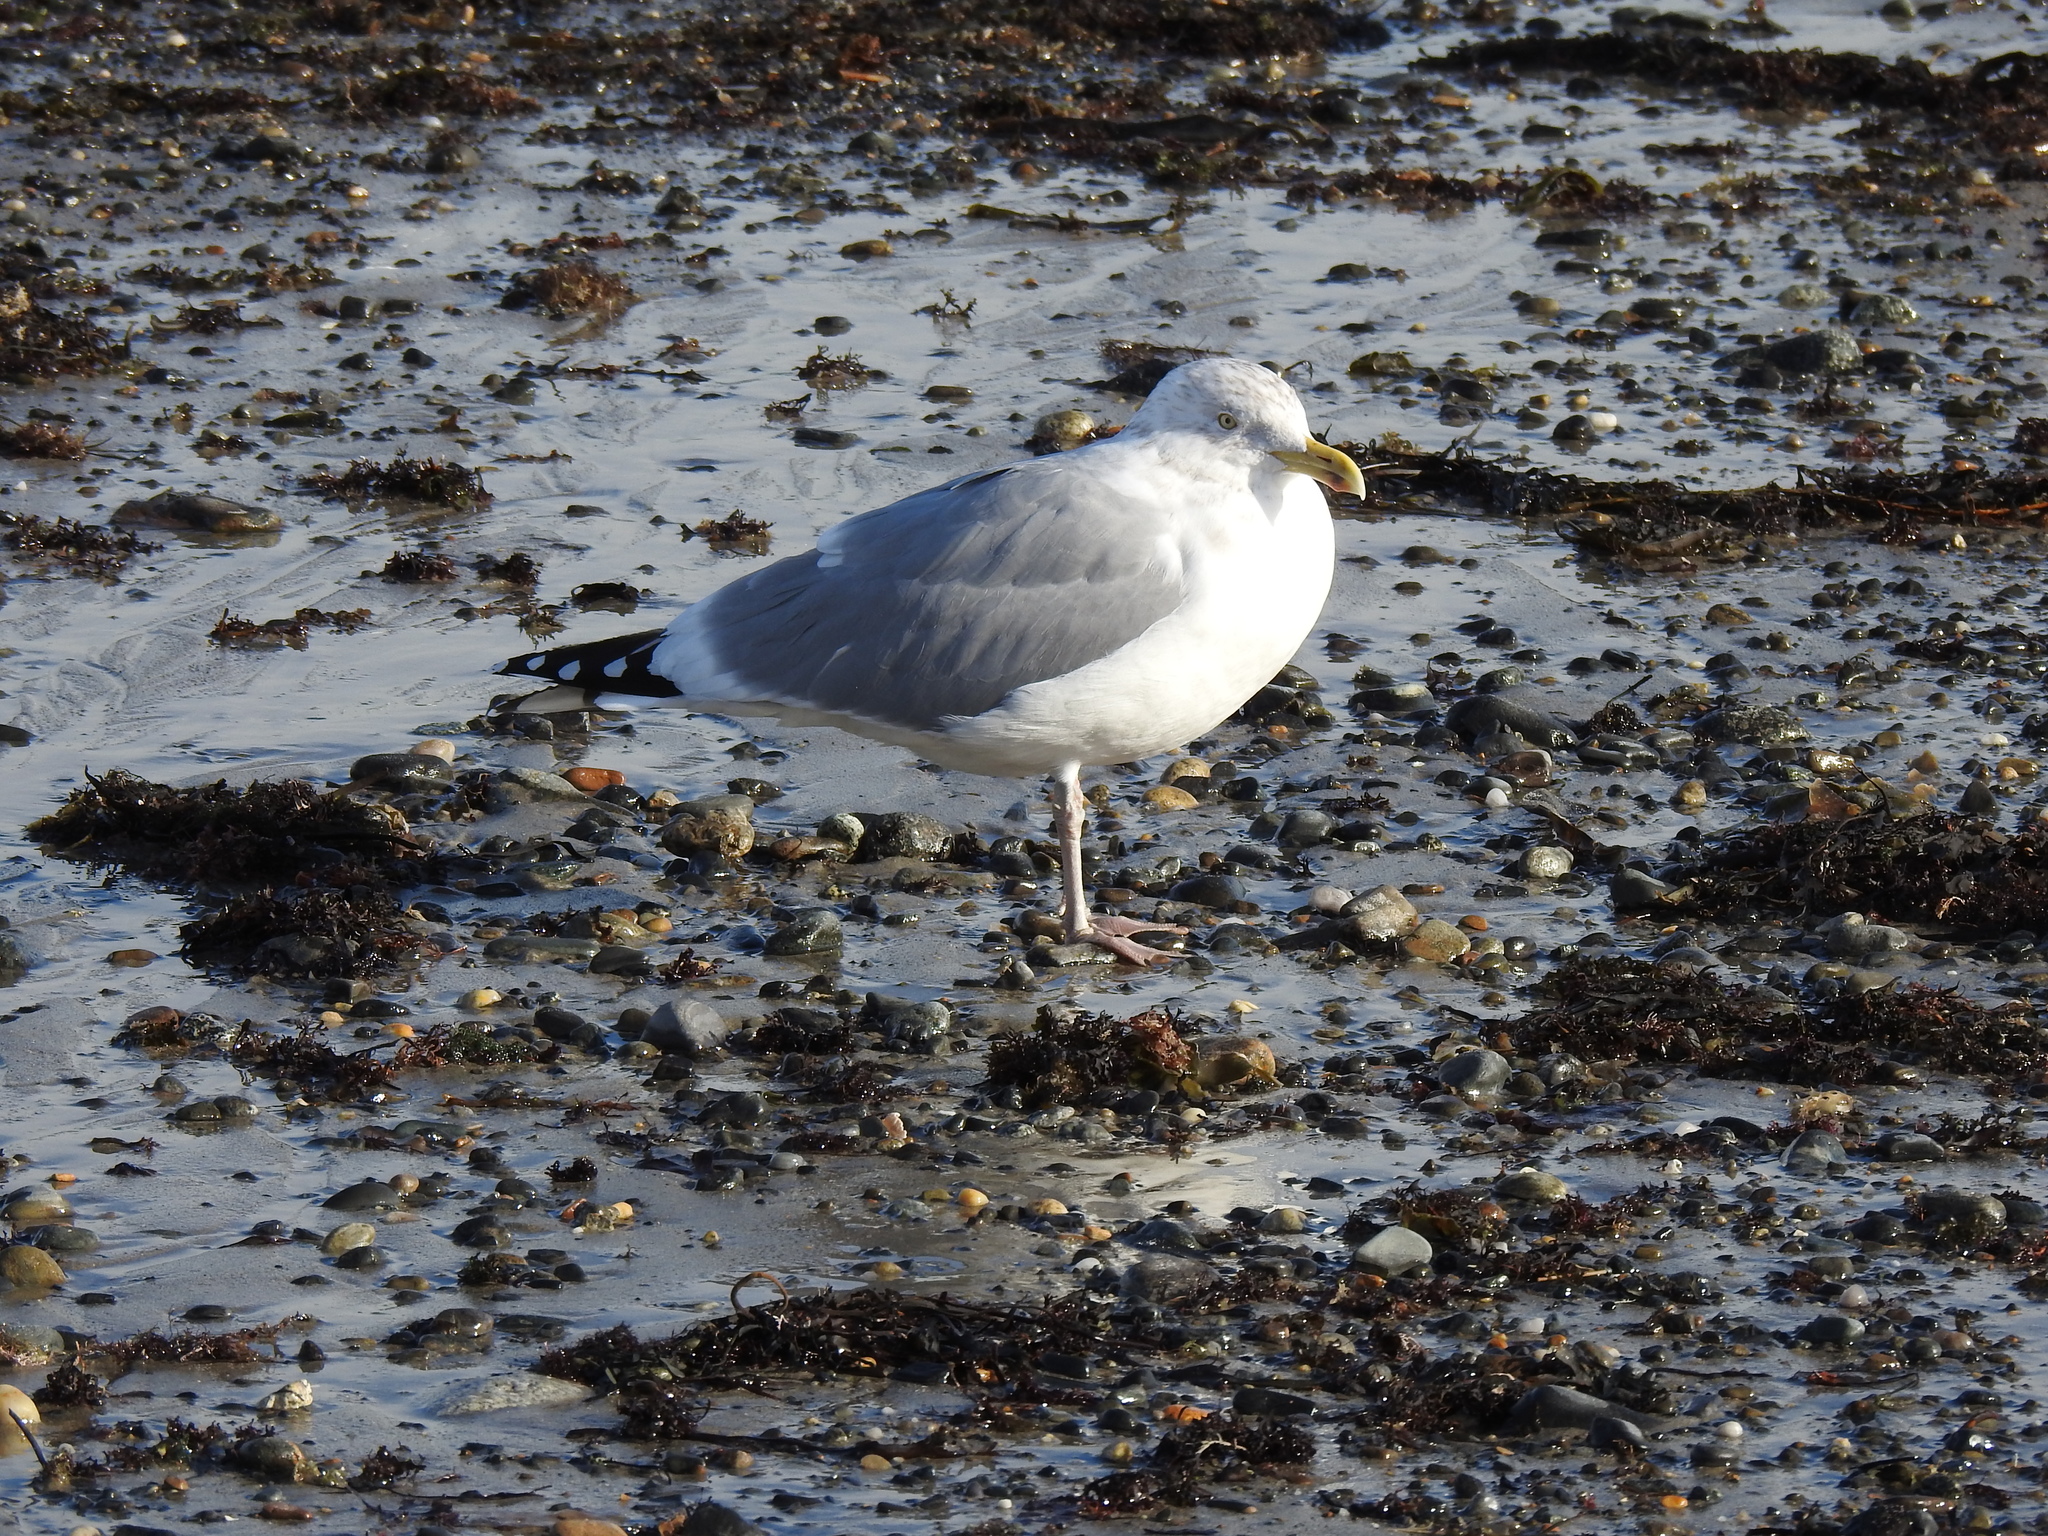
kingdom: Animalia
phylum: Chordata
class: Aves
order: Charadriiformes
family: Laridae
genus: Larus
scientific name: Larus argentatus
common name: Herring gull
